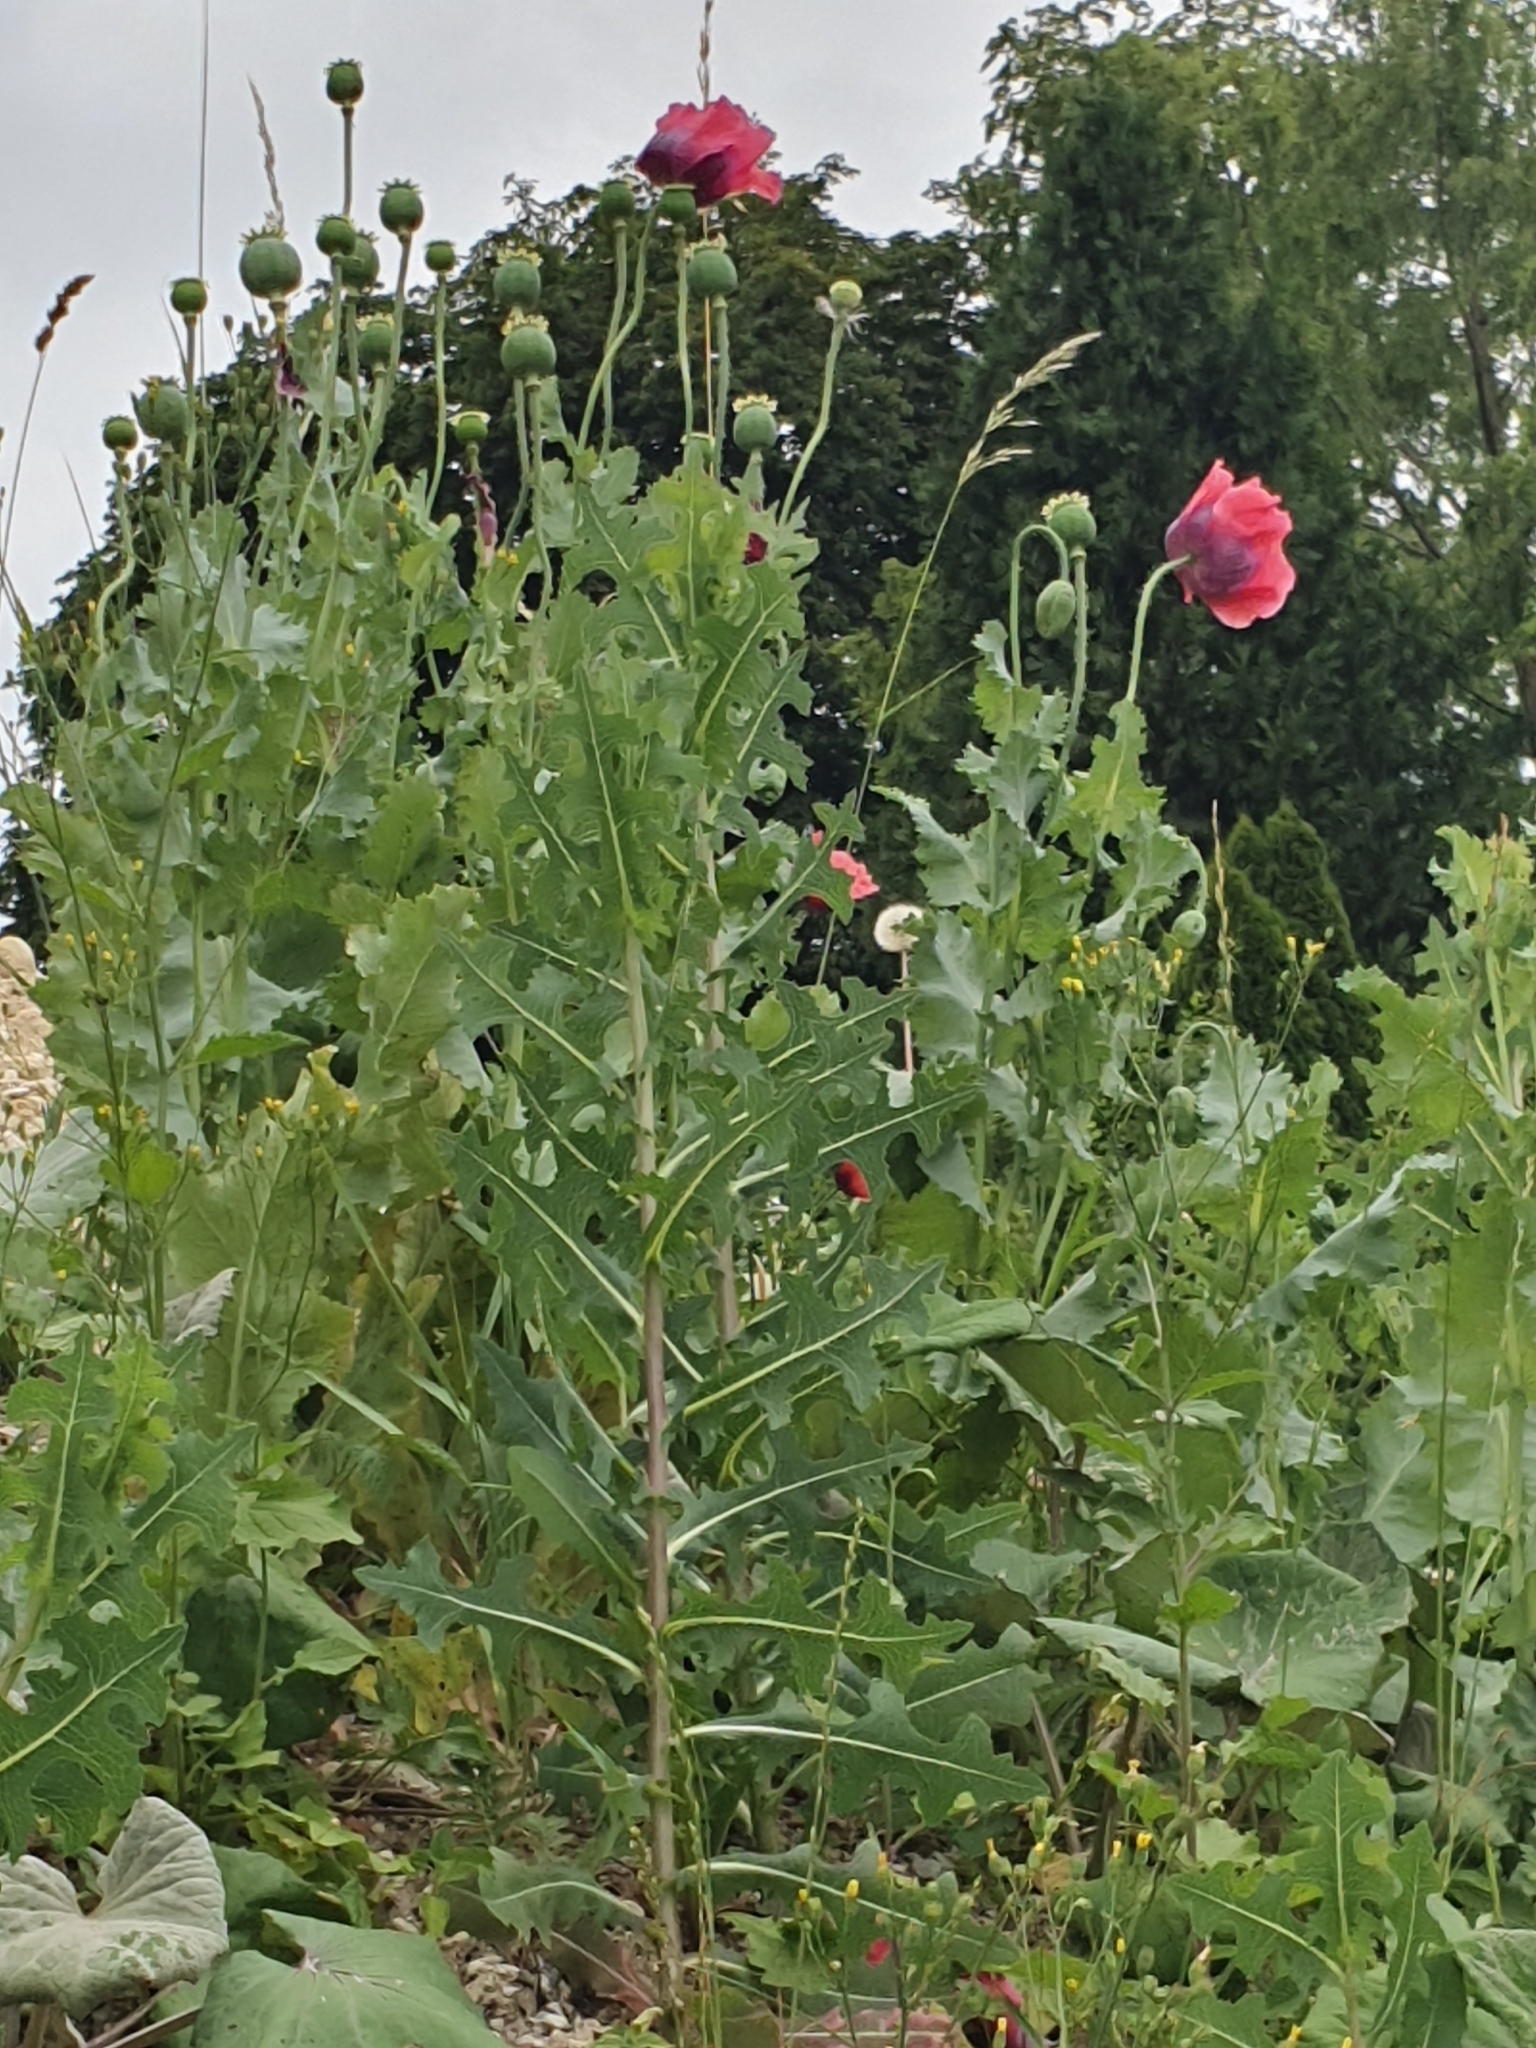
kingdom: Plantae
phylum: Tracheophyta
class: Magnoliopsida
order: Ranunculales
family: Papaveraceae
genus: Papaver
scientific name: Papaver somniferum
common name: Opium poppy
